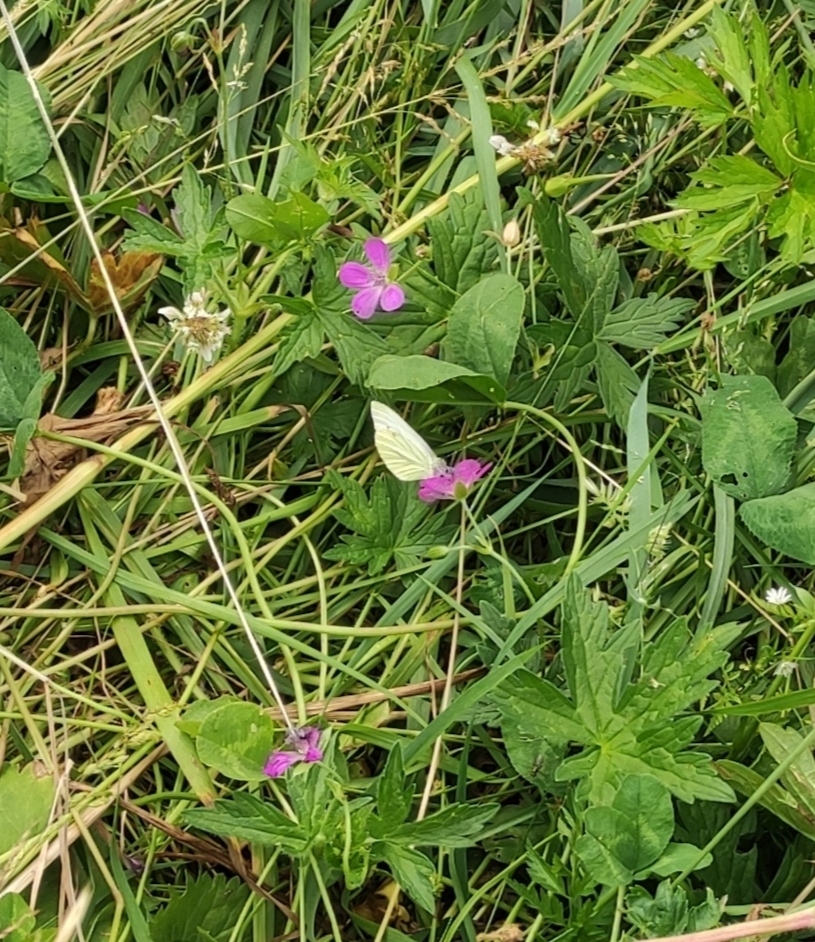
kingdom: Animalia
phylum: Arthropoda
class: Insecta
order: Lepidoptera
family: Pieridae
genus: Pieris
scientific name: Pieris napi
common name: Green-veined white
